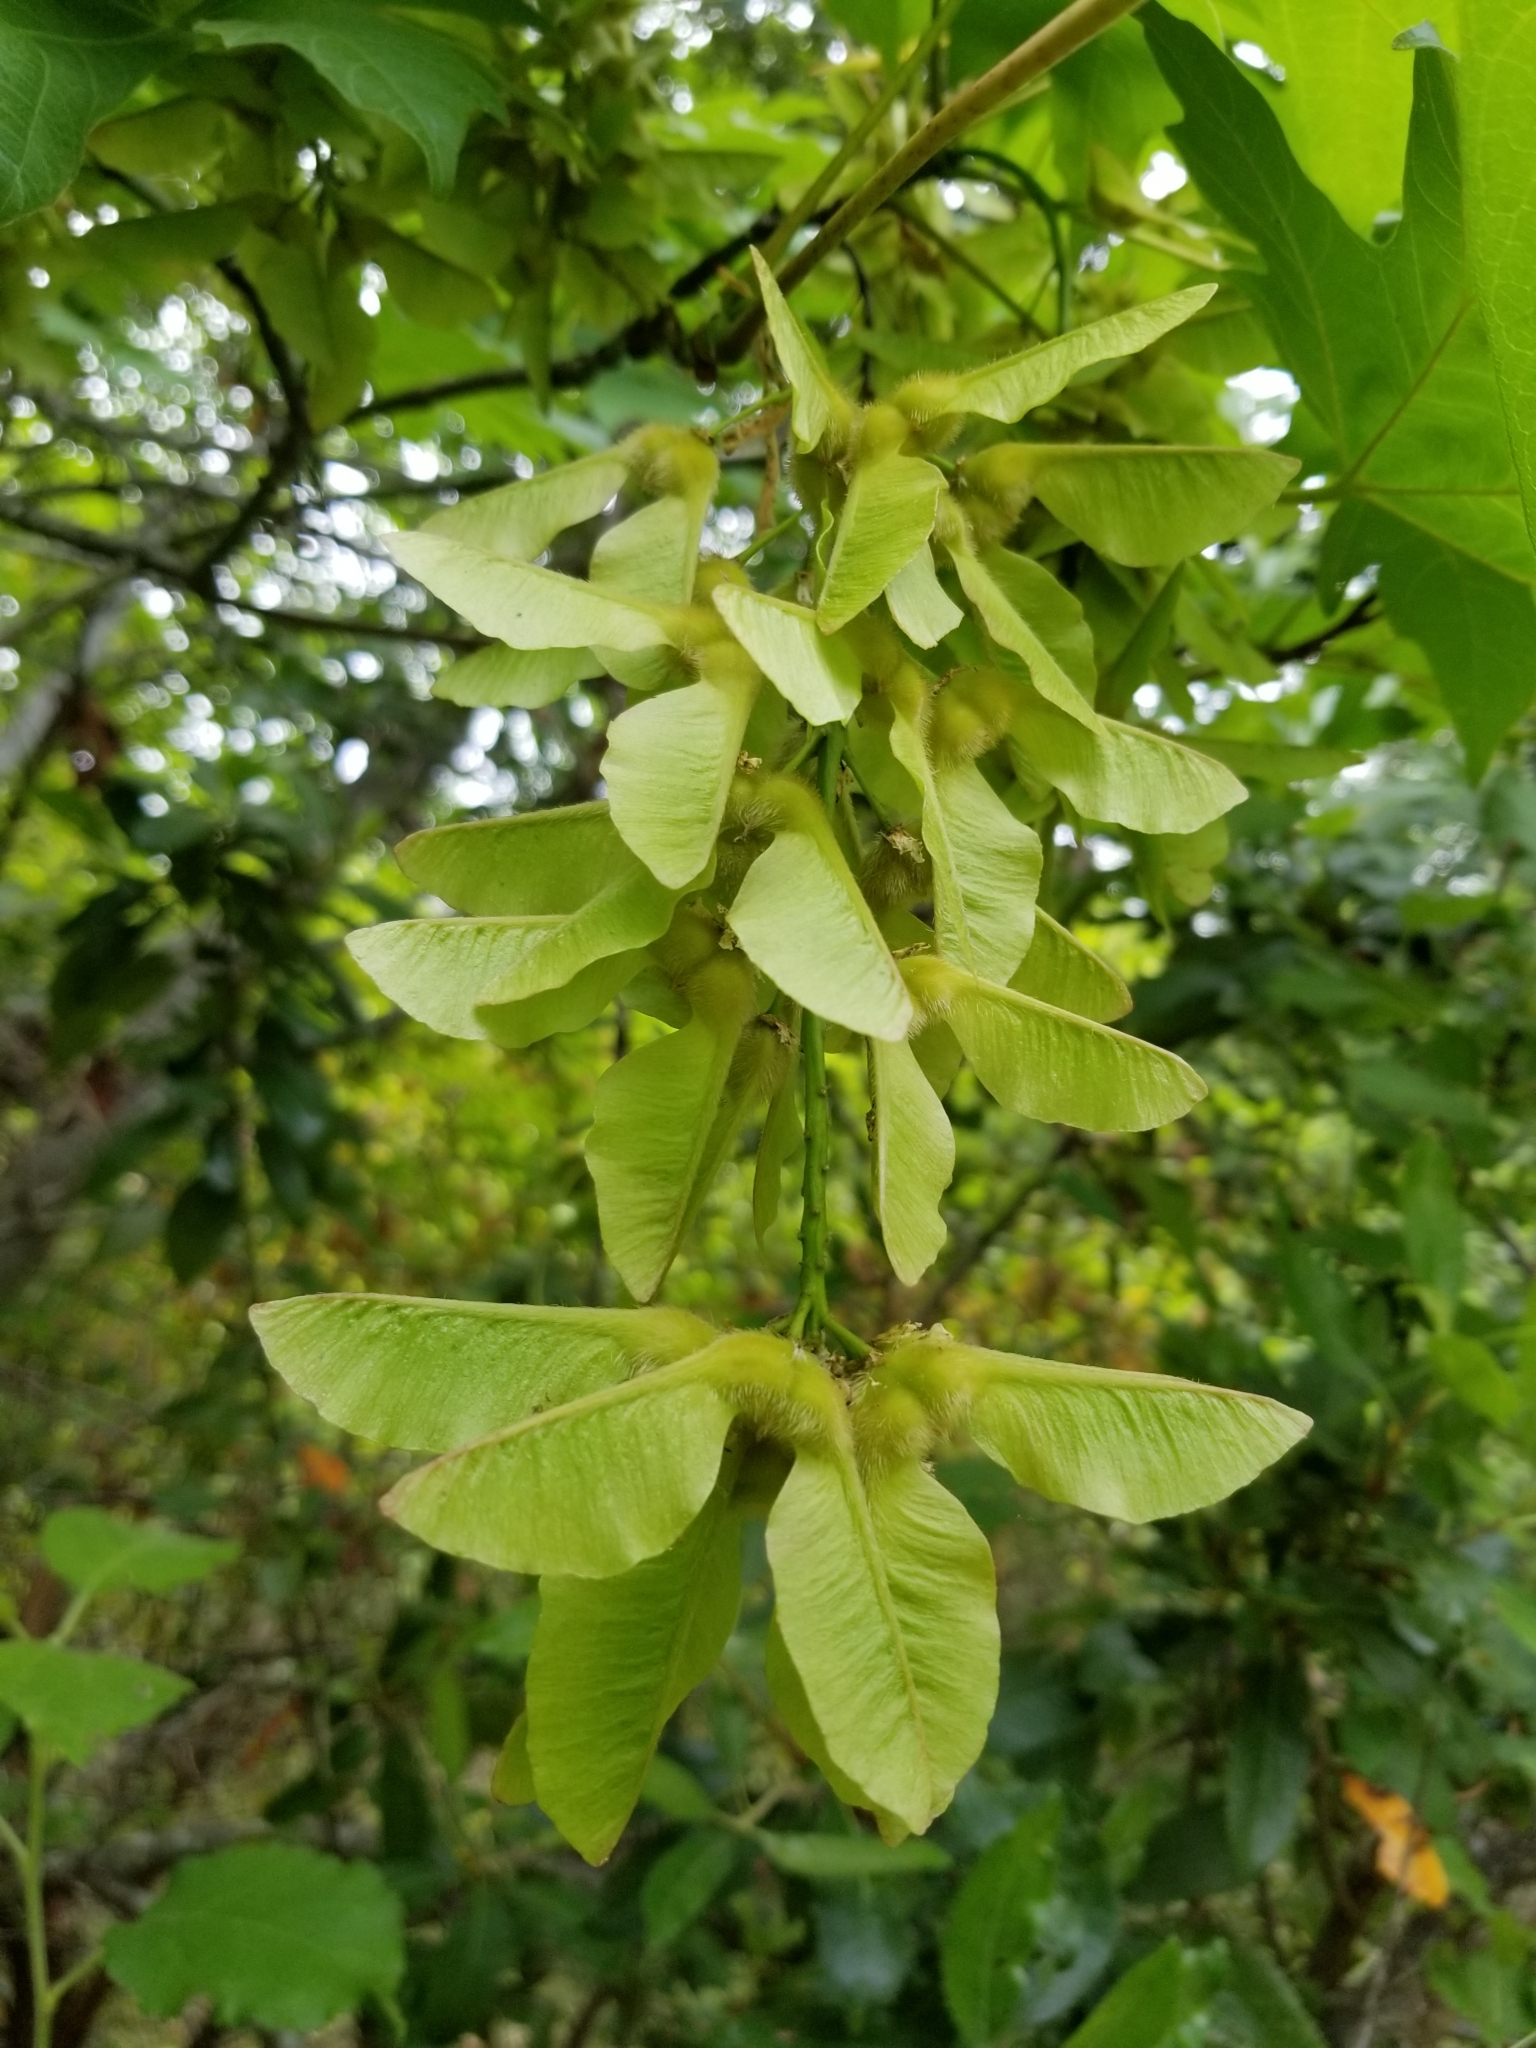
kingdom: Plantae
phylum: Tracheophyta
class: Magnoliopsida
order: Sapindales
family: Sapindaceae
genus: Acer
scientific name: Acer macrophyllum
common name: Oregon maple
